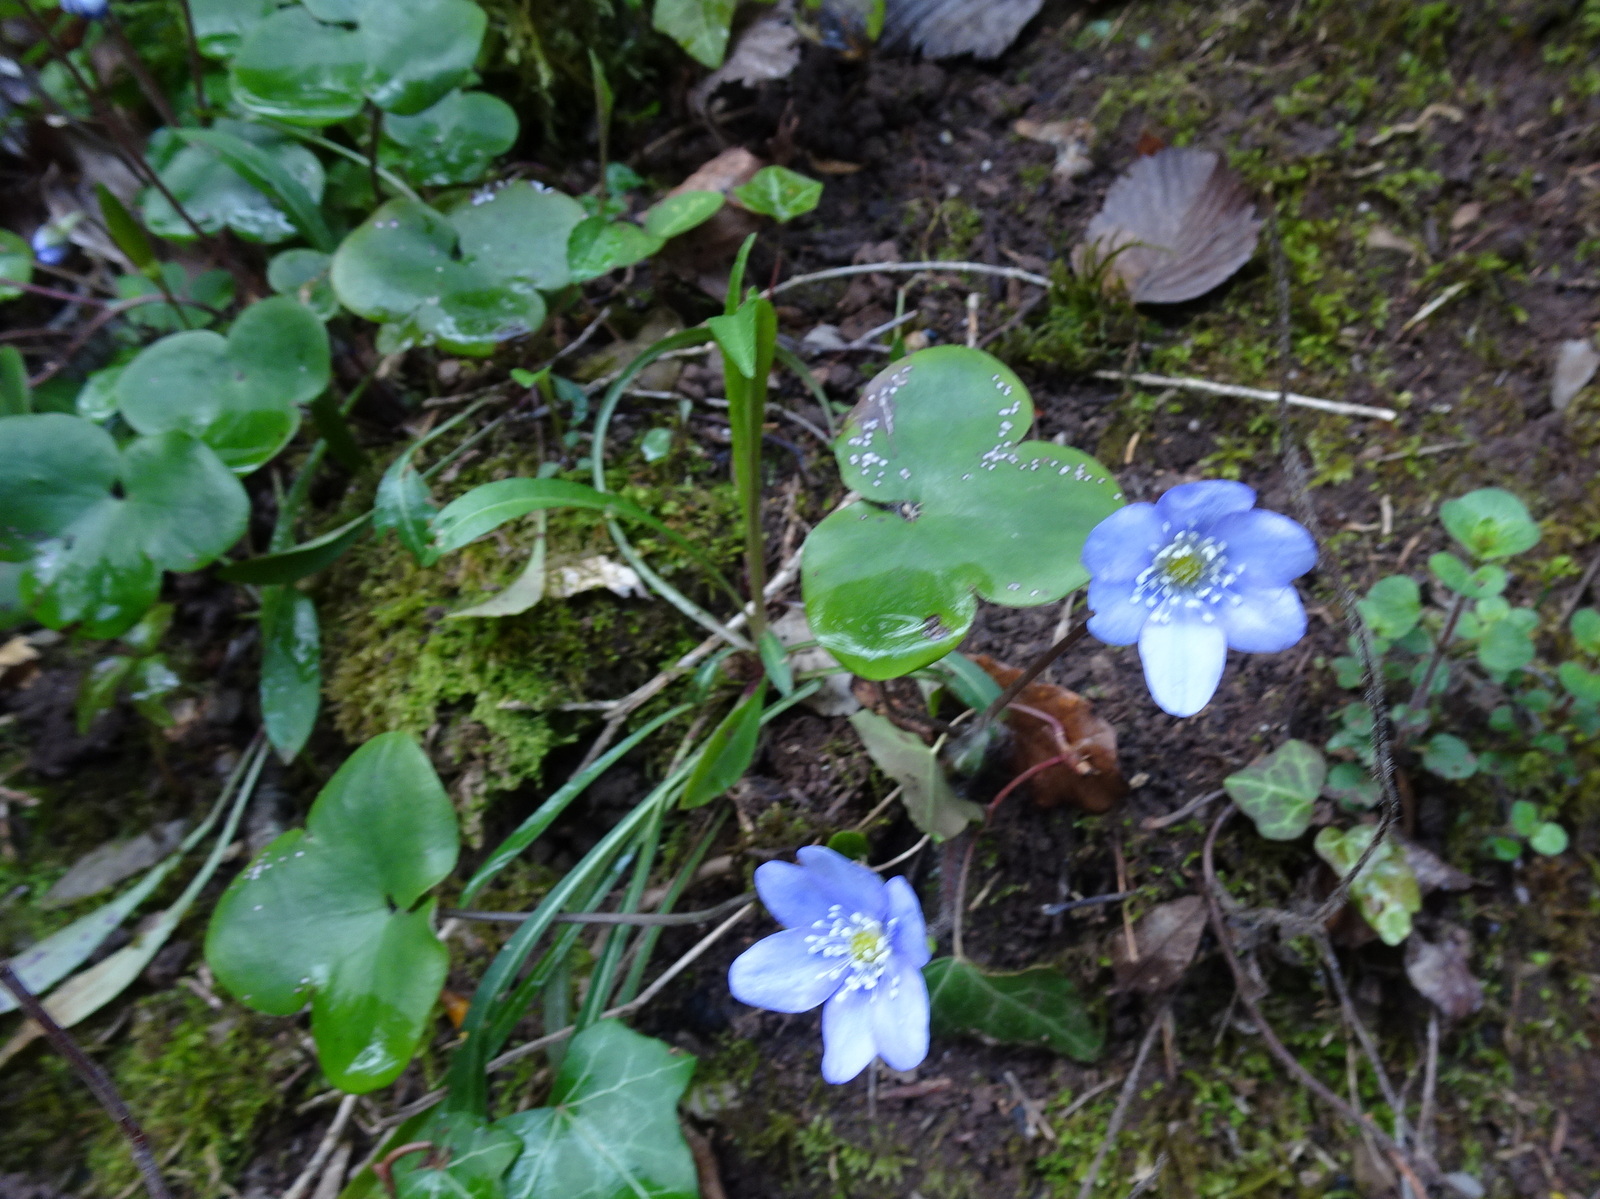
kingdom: Plantae
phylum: Tracheophyta
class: Magnoliopsida
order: Ranunculales
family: Ranunculaceae
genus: Hepatica
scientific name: Hepatica nobilis
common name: Liverleaf
